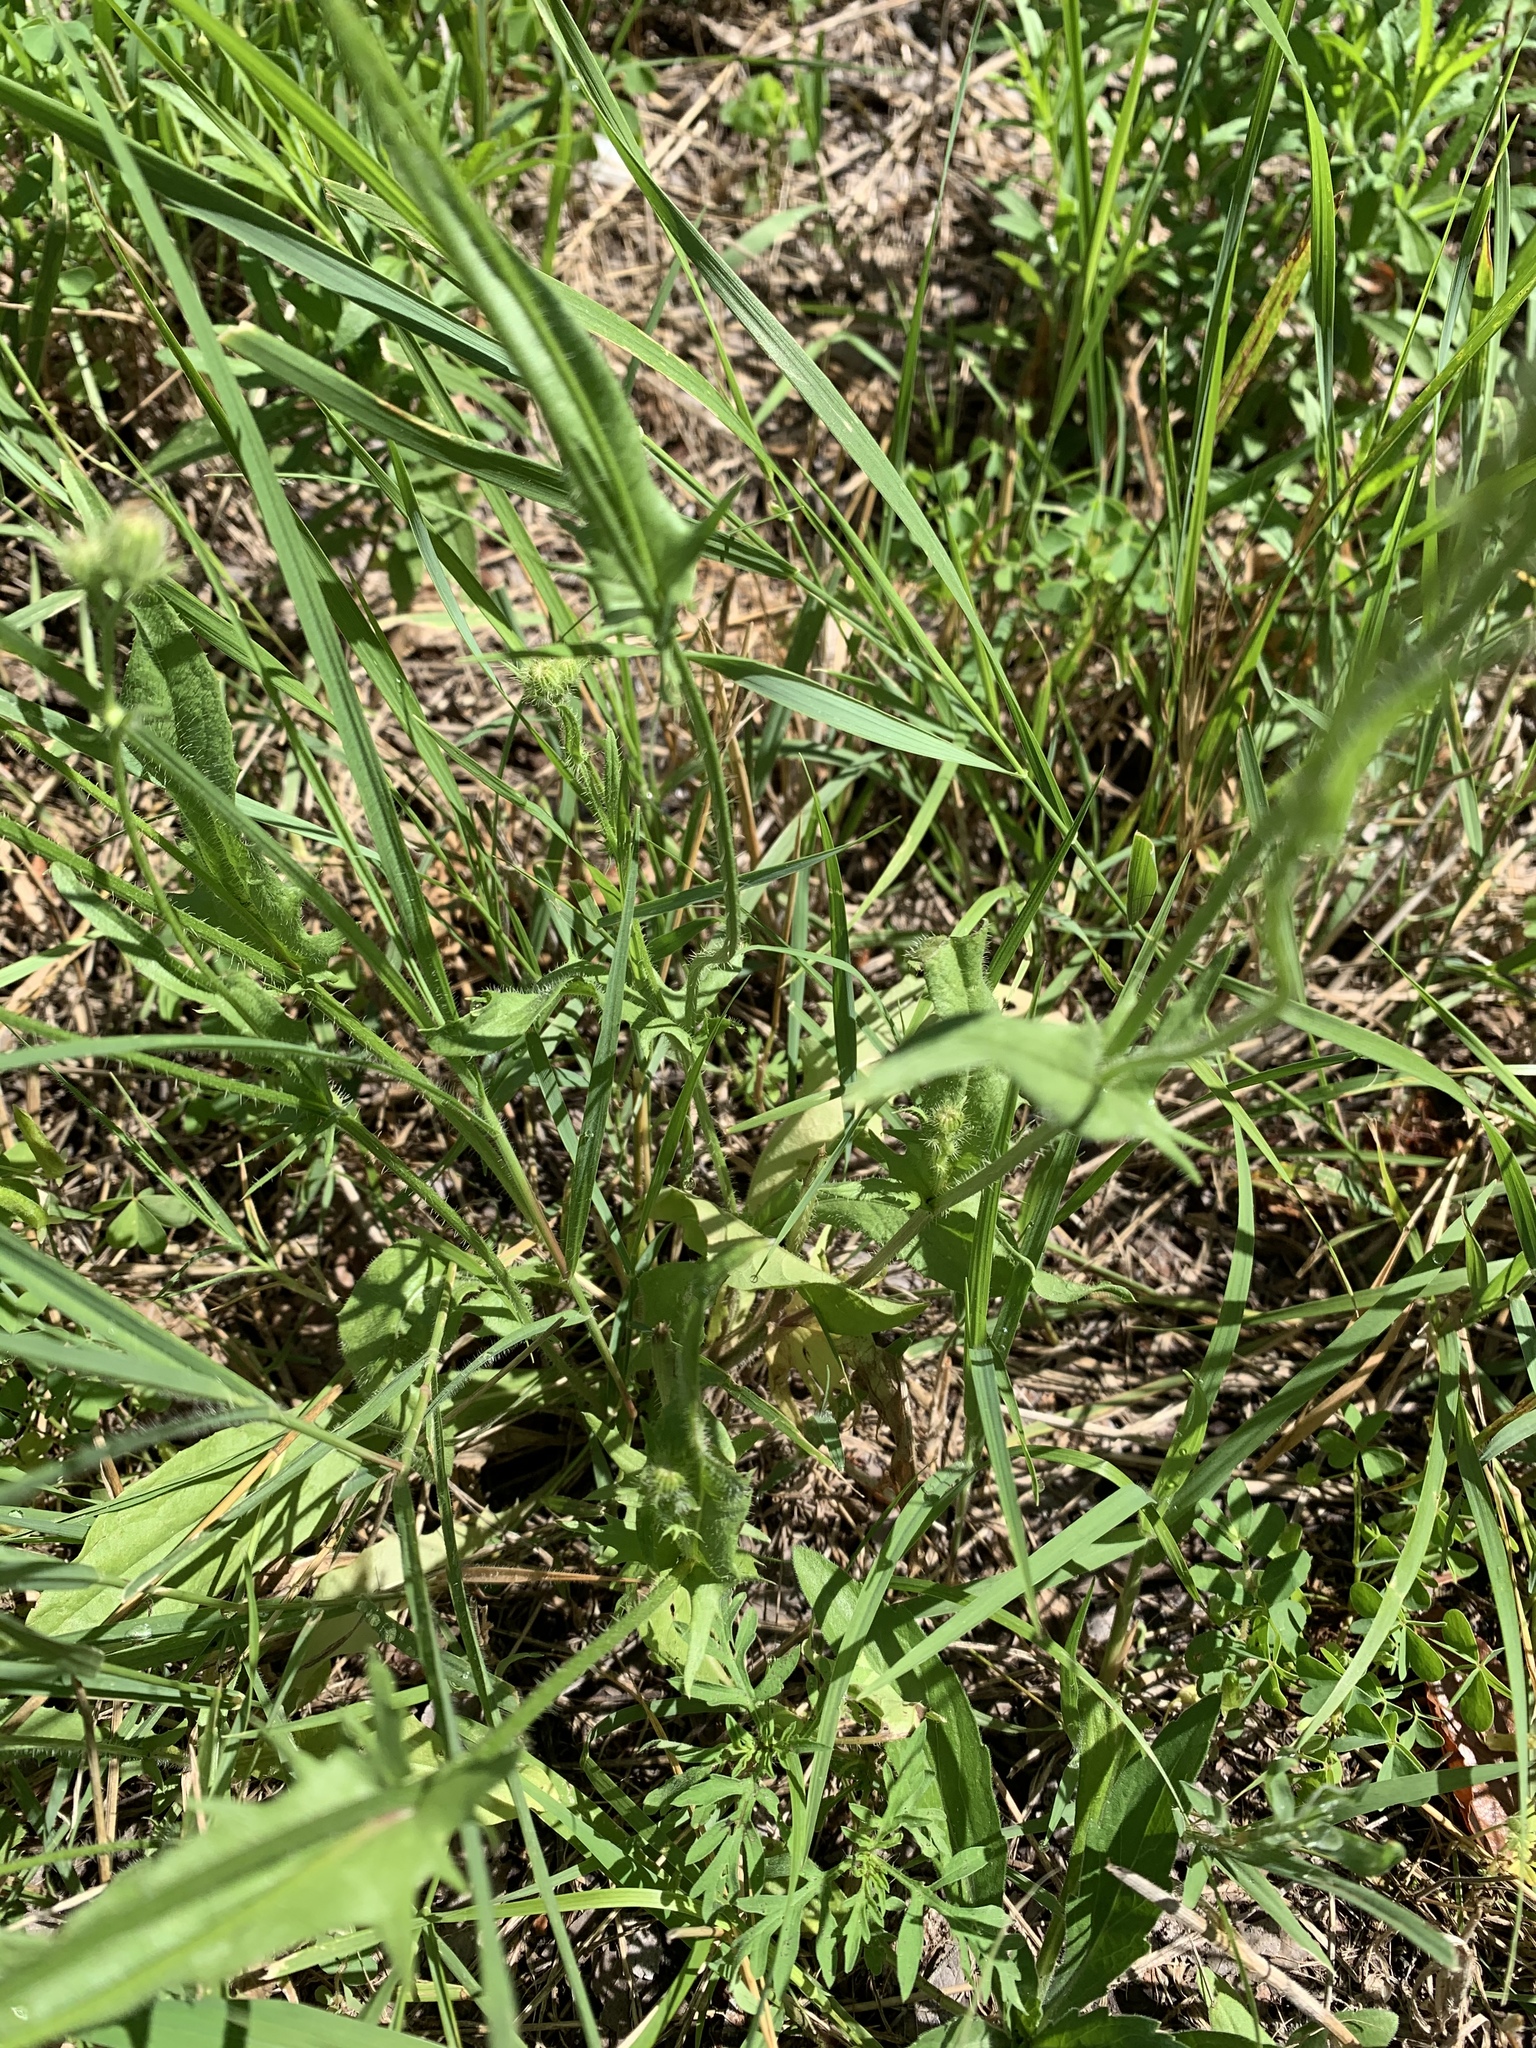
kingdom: Plantae
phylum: Tracheophyta
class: Magnoliopsida
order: Asterales
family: Asteraceae
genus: Crepis
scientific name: Crepis setosa
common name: Bristly hawk's-beard
